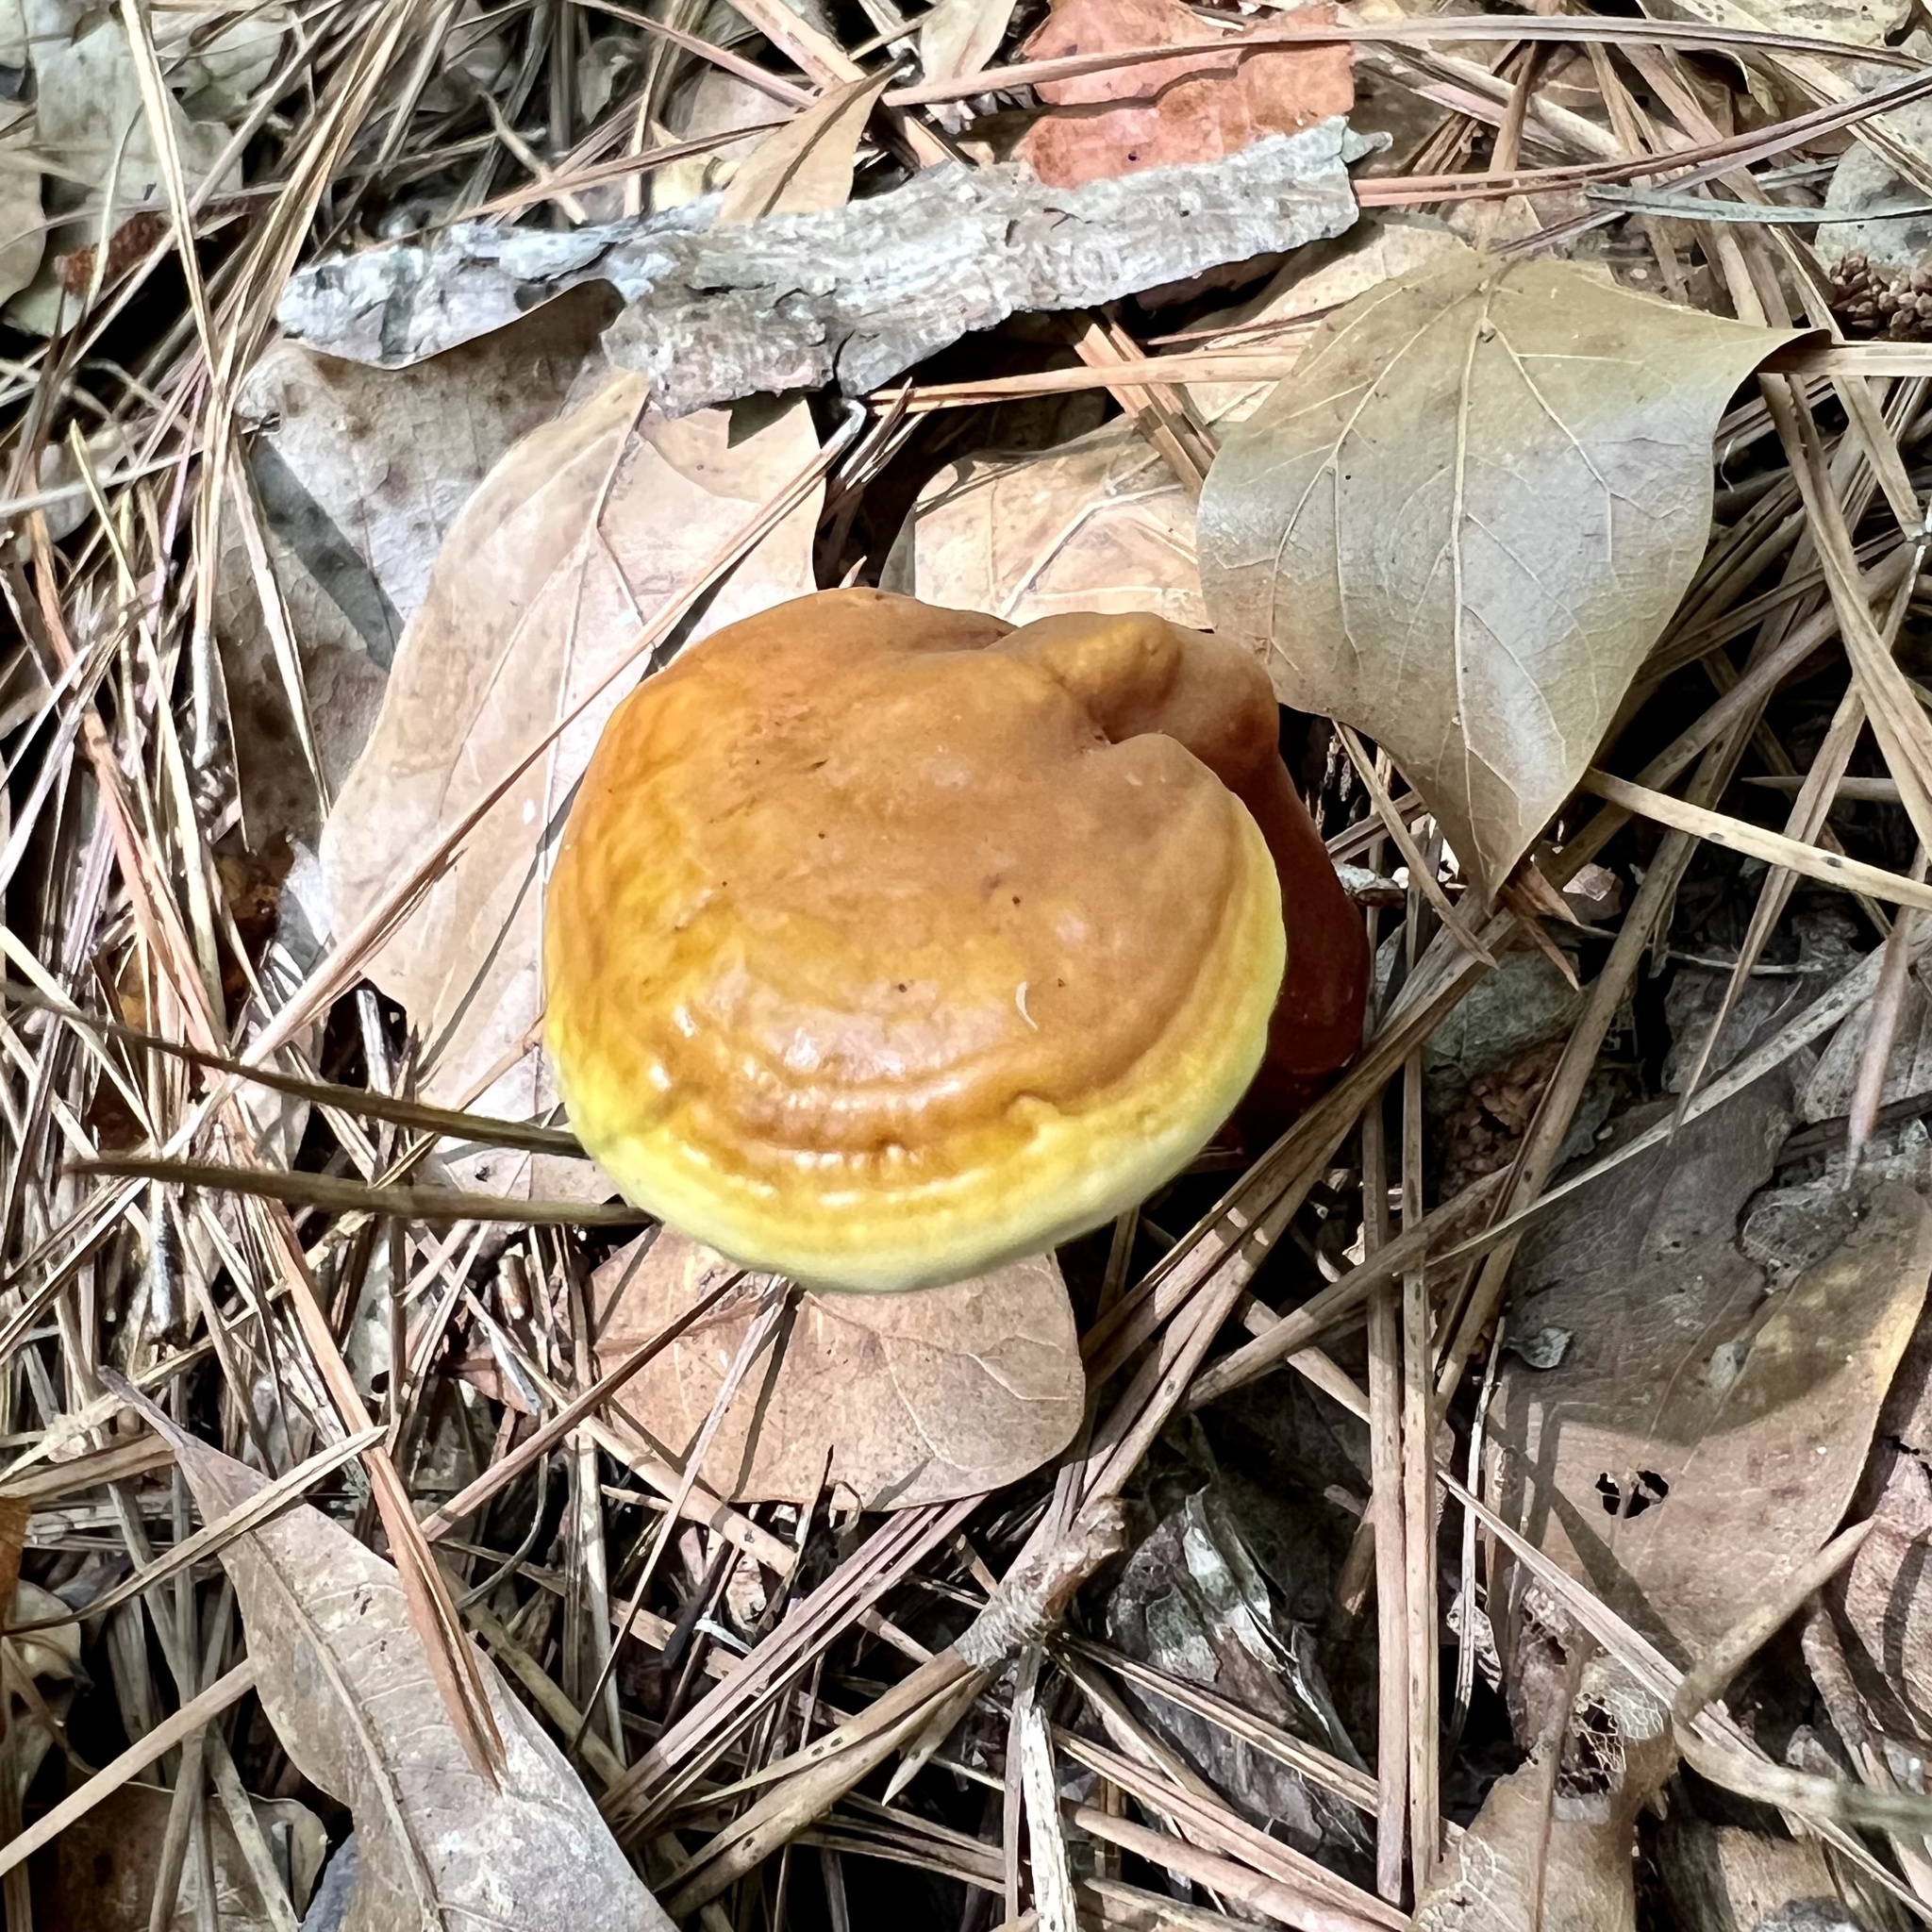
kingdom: Fungi
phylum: Basidiomycota
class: Agaricomycetes
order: Polyporales
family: Polyporaceae
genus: Ganoderma
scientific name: Ganoderma curtisii
